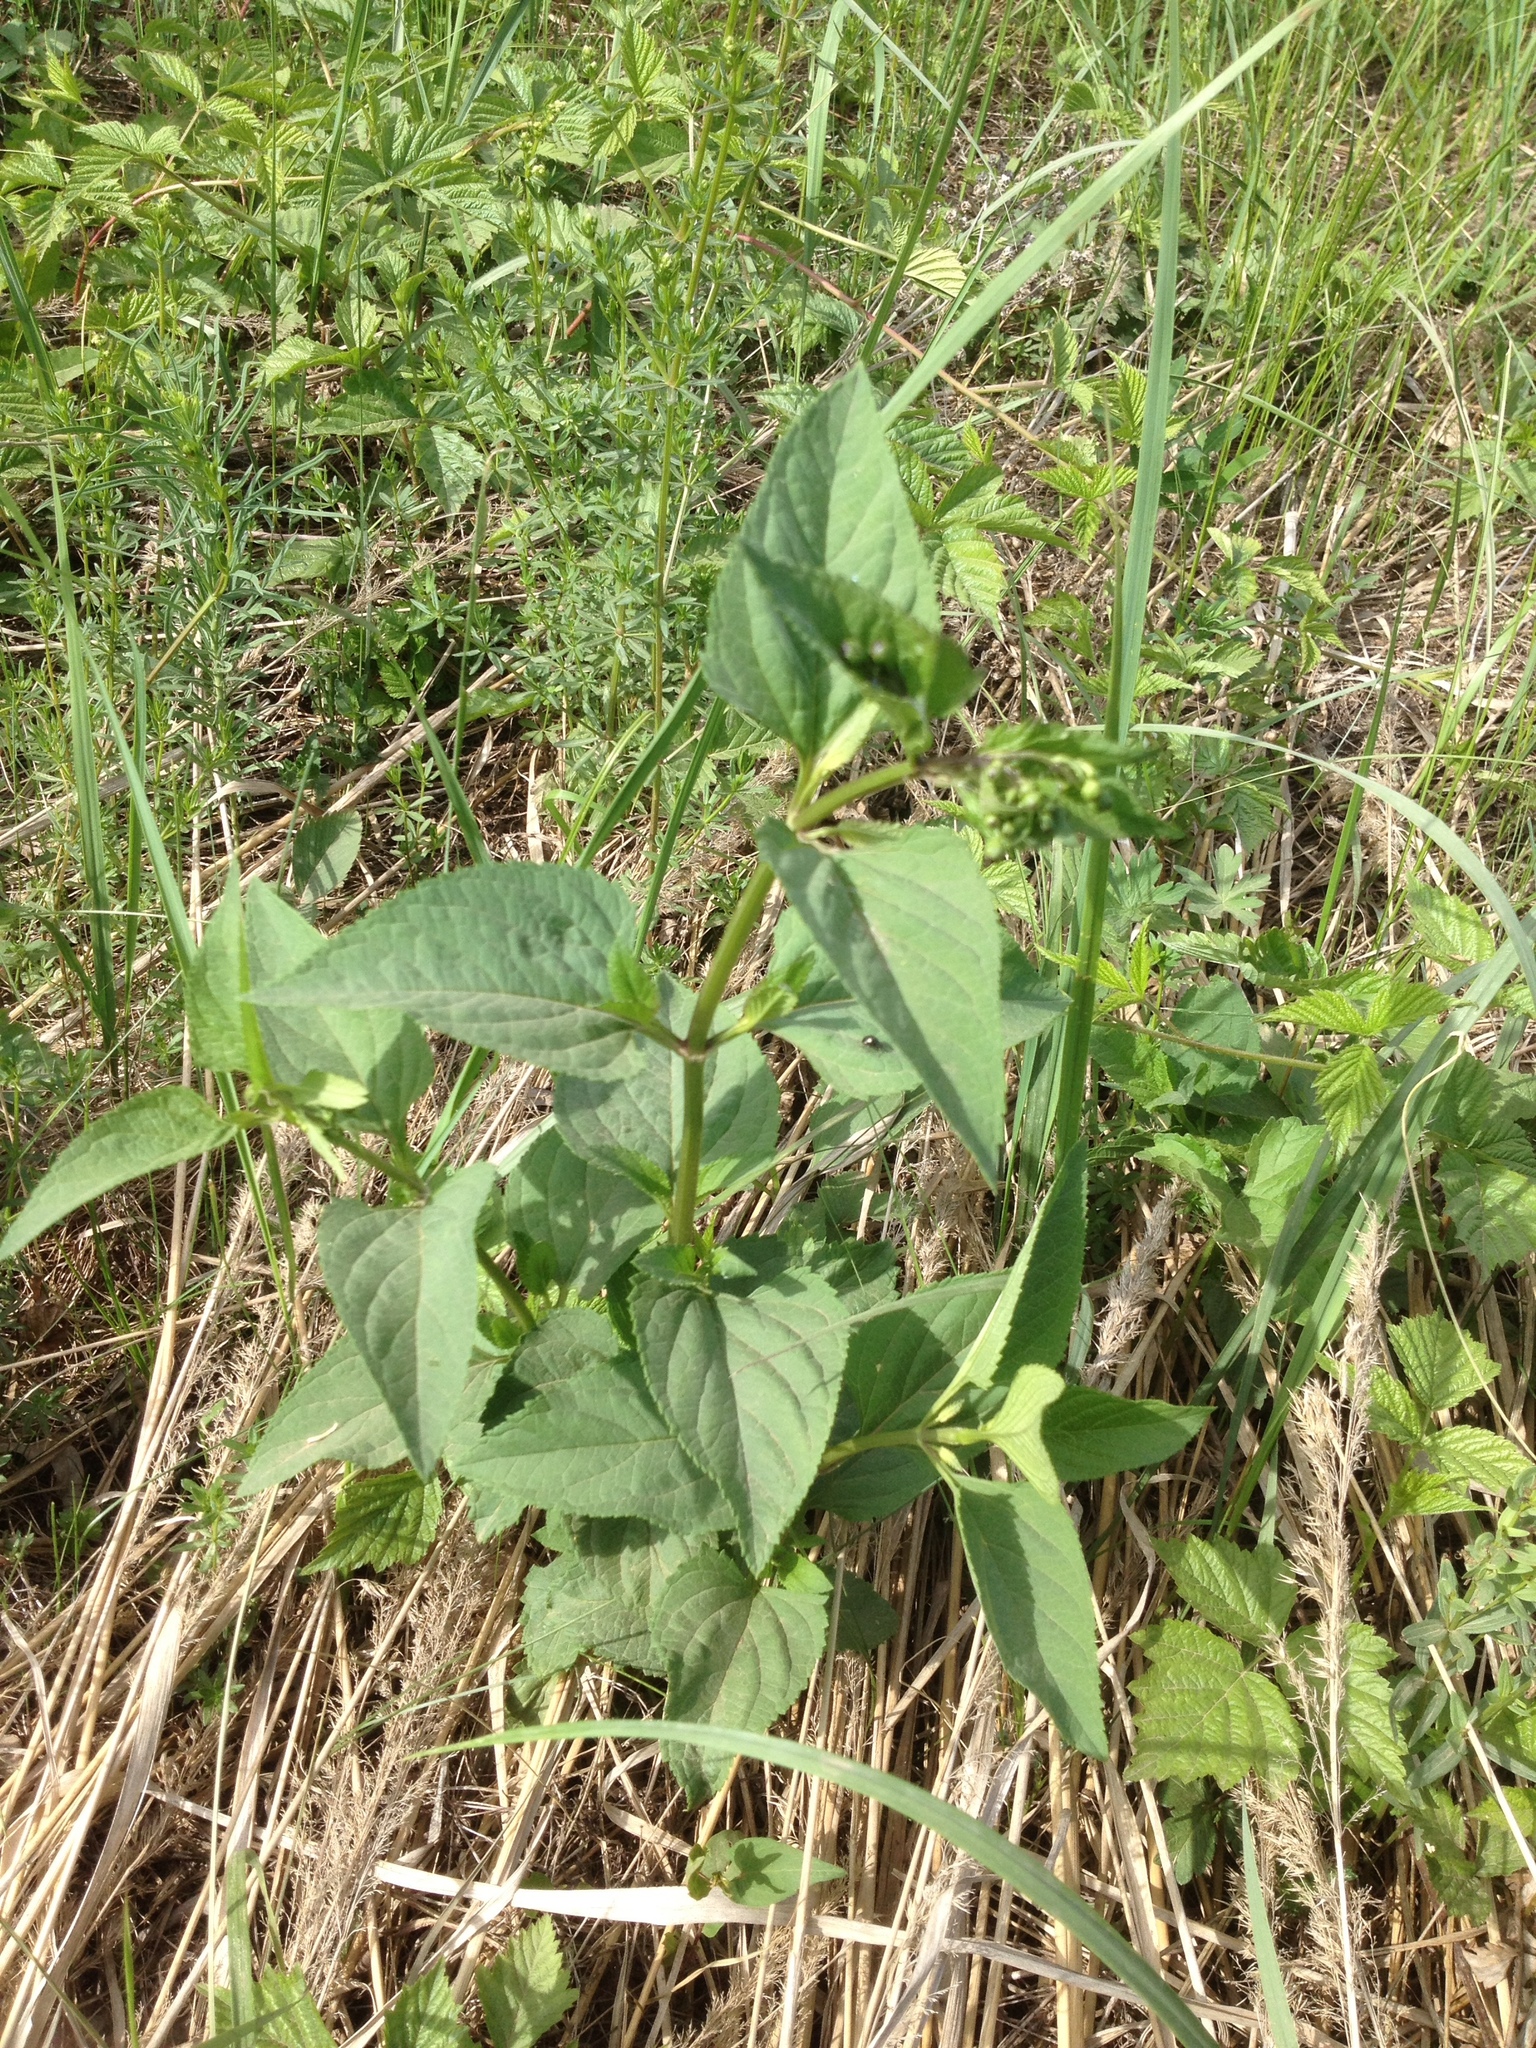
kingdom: Plantae
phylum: Tracheophyta
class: Magnoliopsida
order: Lamiales
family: Scrophulariaceae
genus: Scrophularia
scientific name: Scrophularia nodosa
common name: Common figwort
